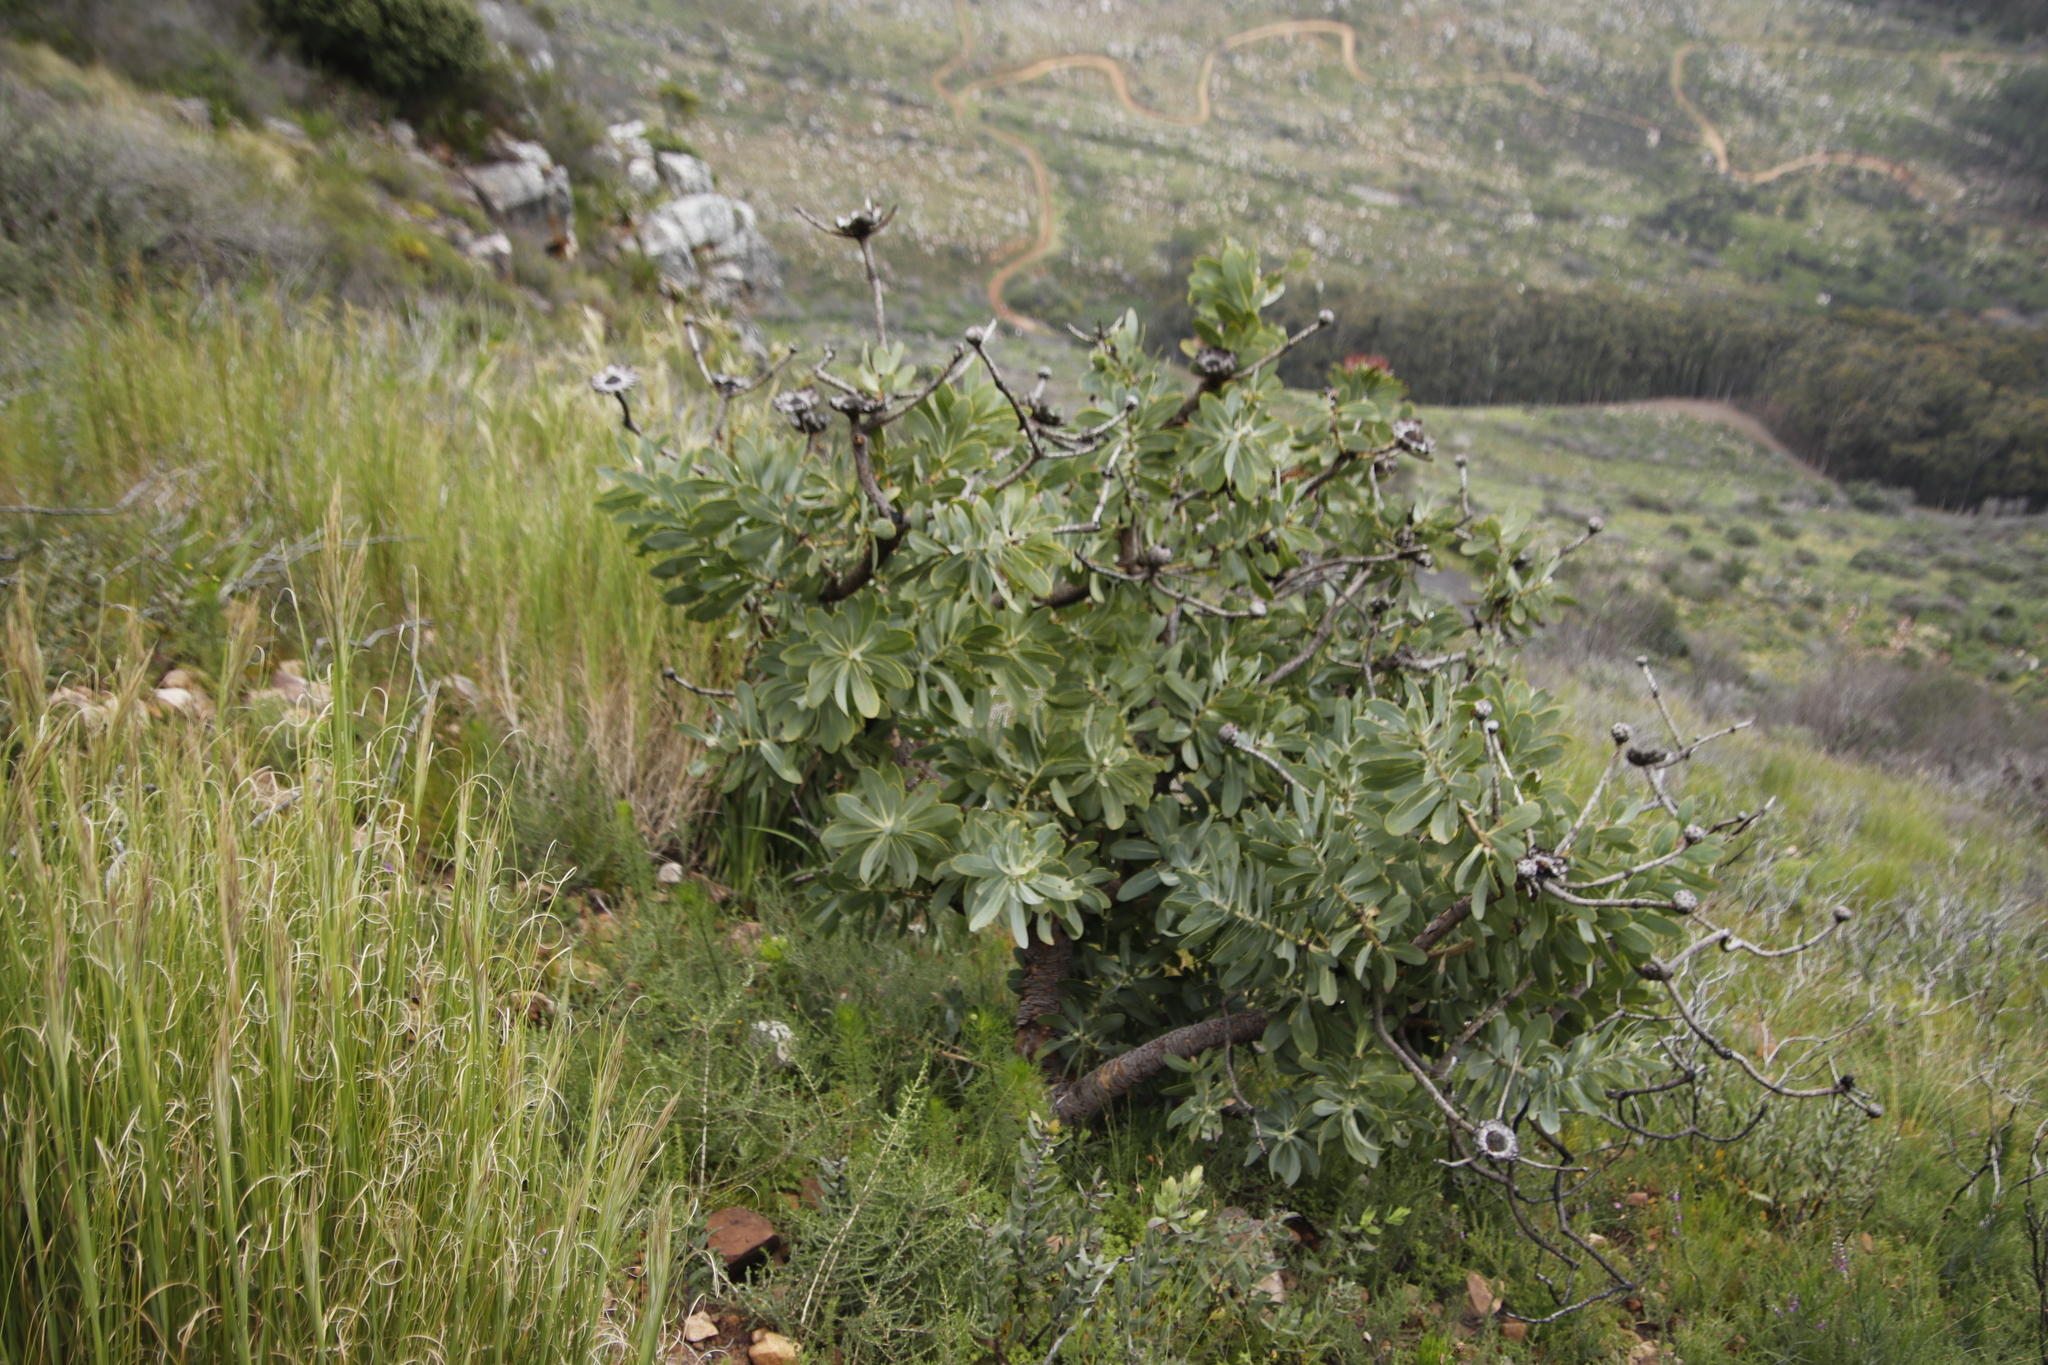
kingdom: Plantae
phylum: Tracheophyta
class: Magnoliopsida
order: Proteales
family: Proteaceae
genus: Protea
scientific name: Protea nitida
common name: Tree protea
